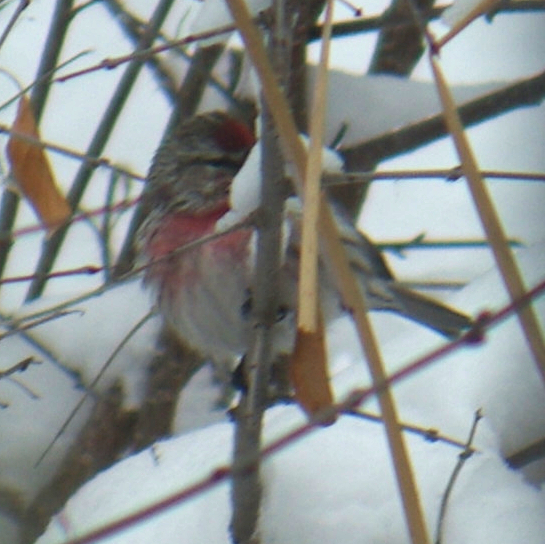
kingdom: Animalia
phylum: Chordata
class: Aves
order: Passeriformes
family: Fringillidae
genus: Acanthis
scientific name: Acanthis flammea
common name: Common redpoll
